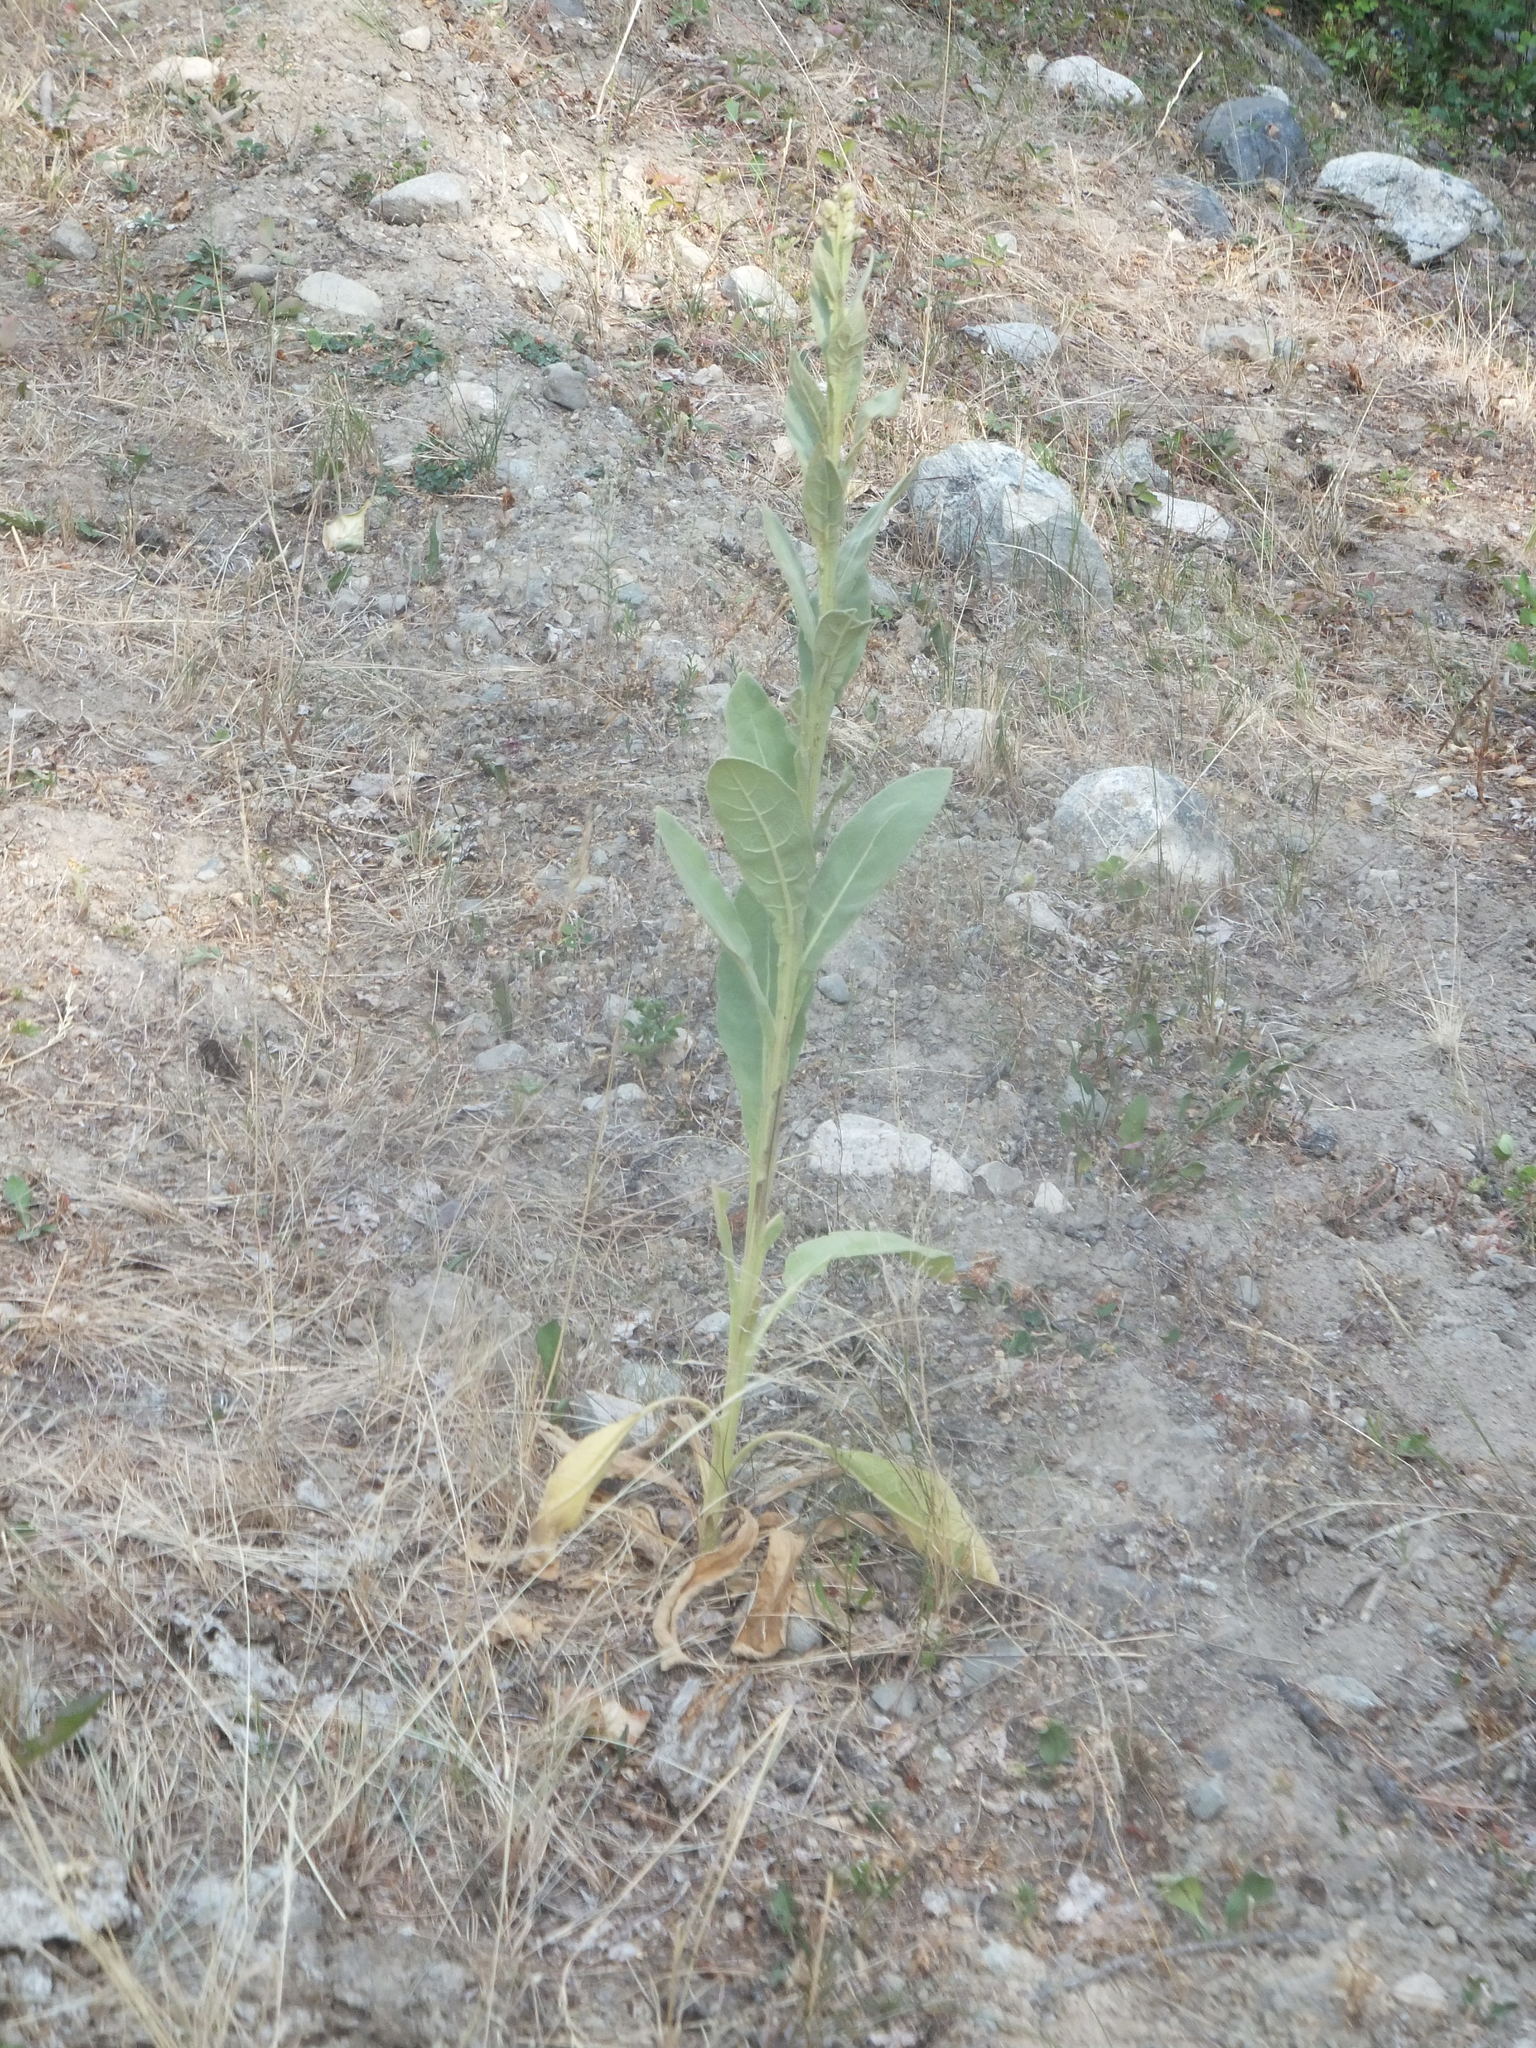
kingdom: Plantae
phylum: Tracheophyta
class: Magnoliopsida
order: Lamiales
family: Scrophulariaceae
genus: Verbascum
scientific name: Verbascum thapsus
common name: Common mullein
